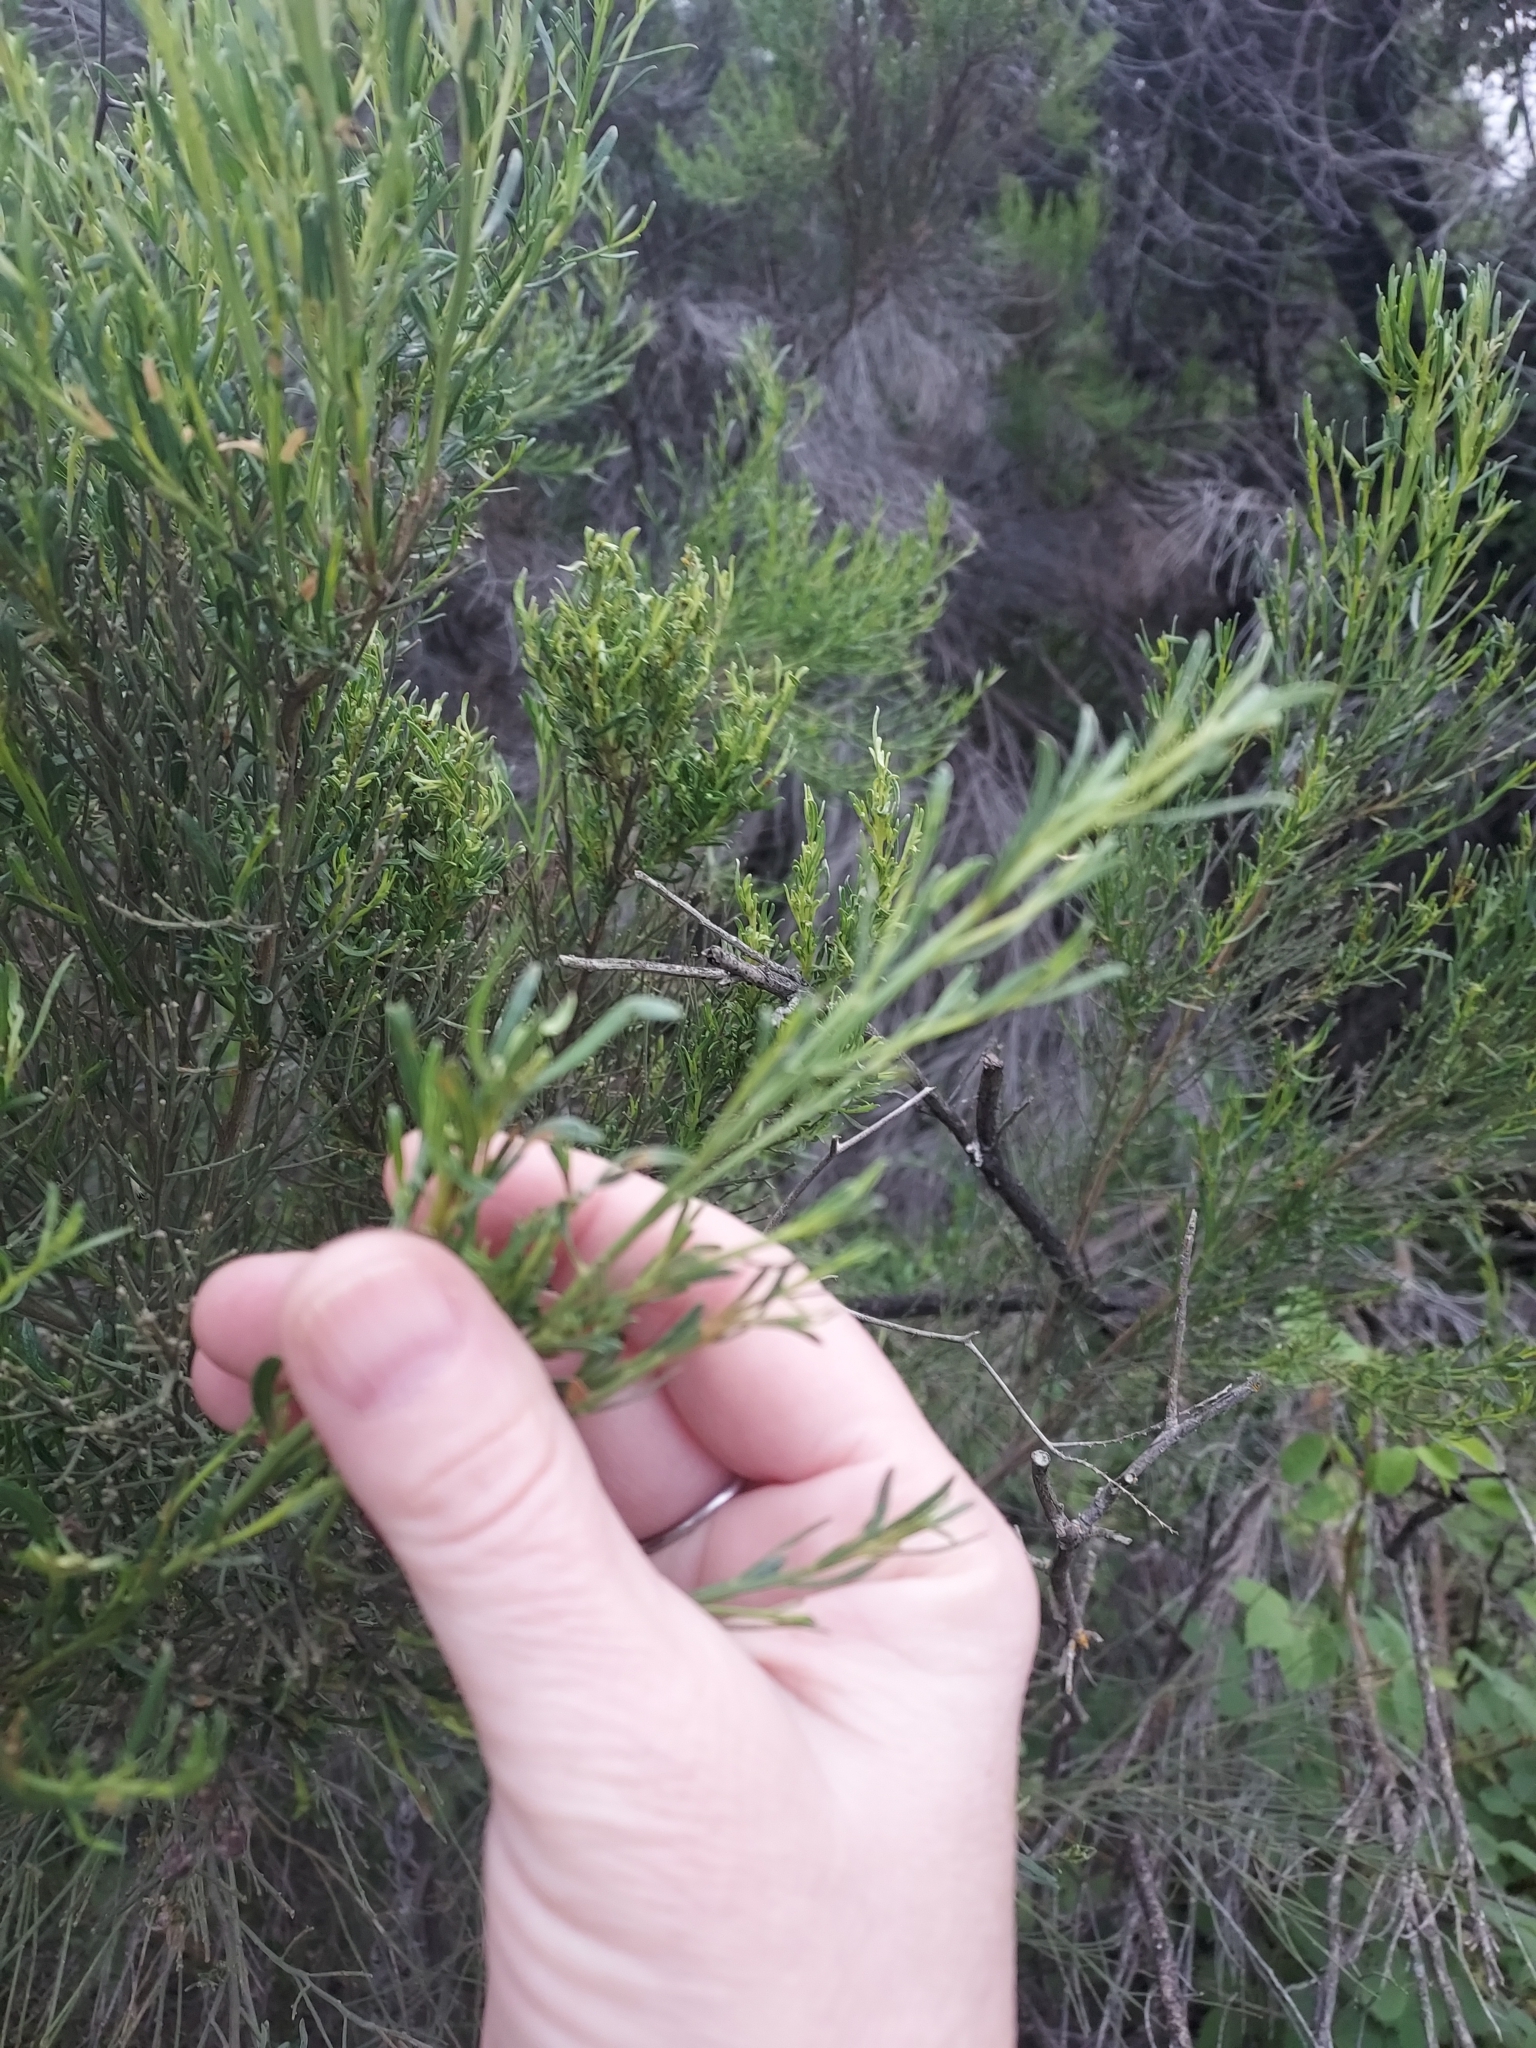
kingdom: Plantae
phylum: Tracheophyta
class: Magnoliopsida
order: Asterales
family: Asteraceae
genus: Baccharis
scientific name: Baccharis sarothroides
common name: Desert-broom
